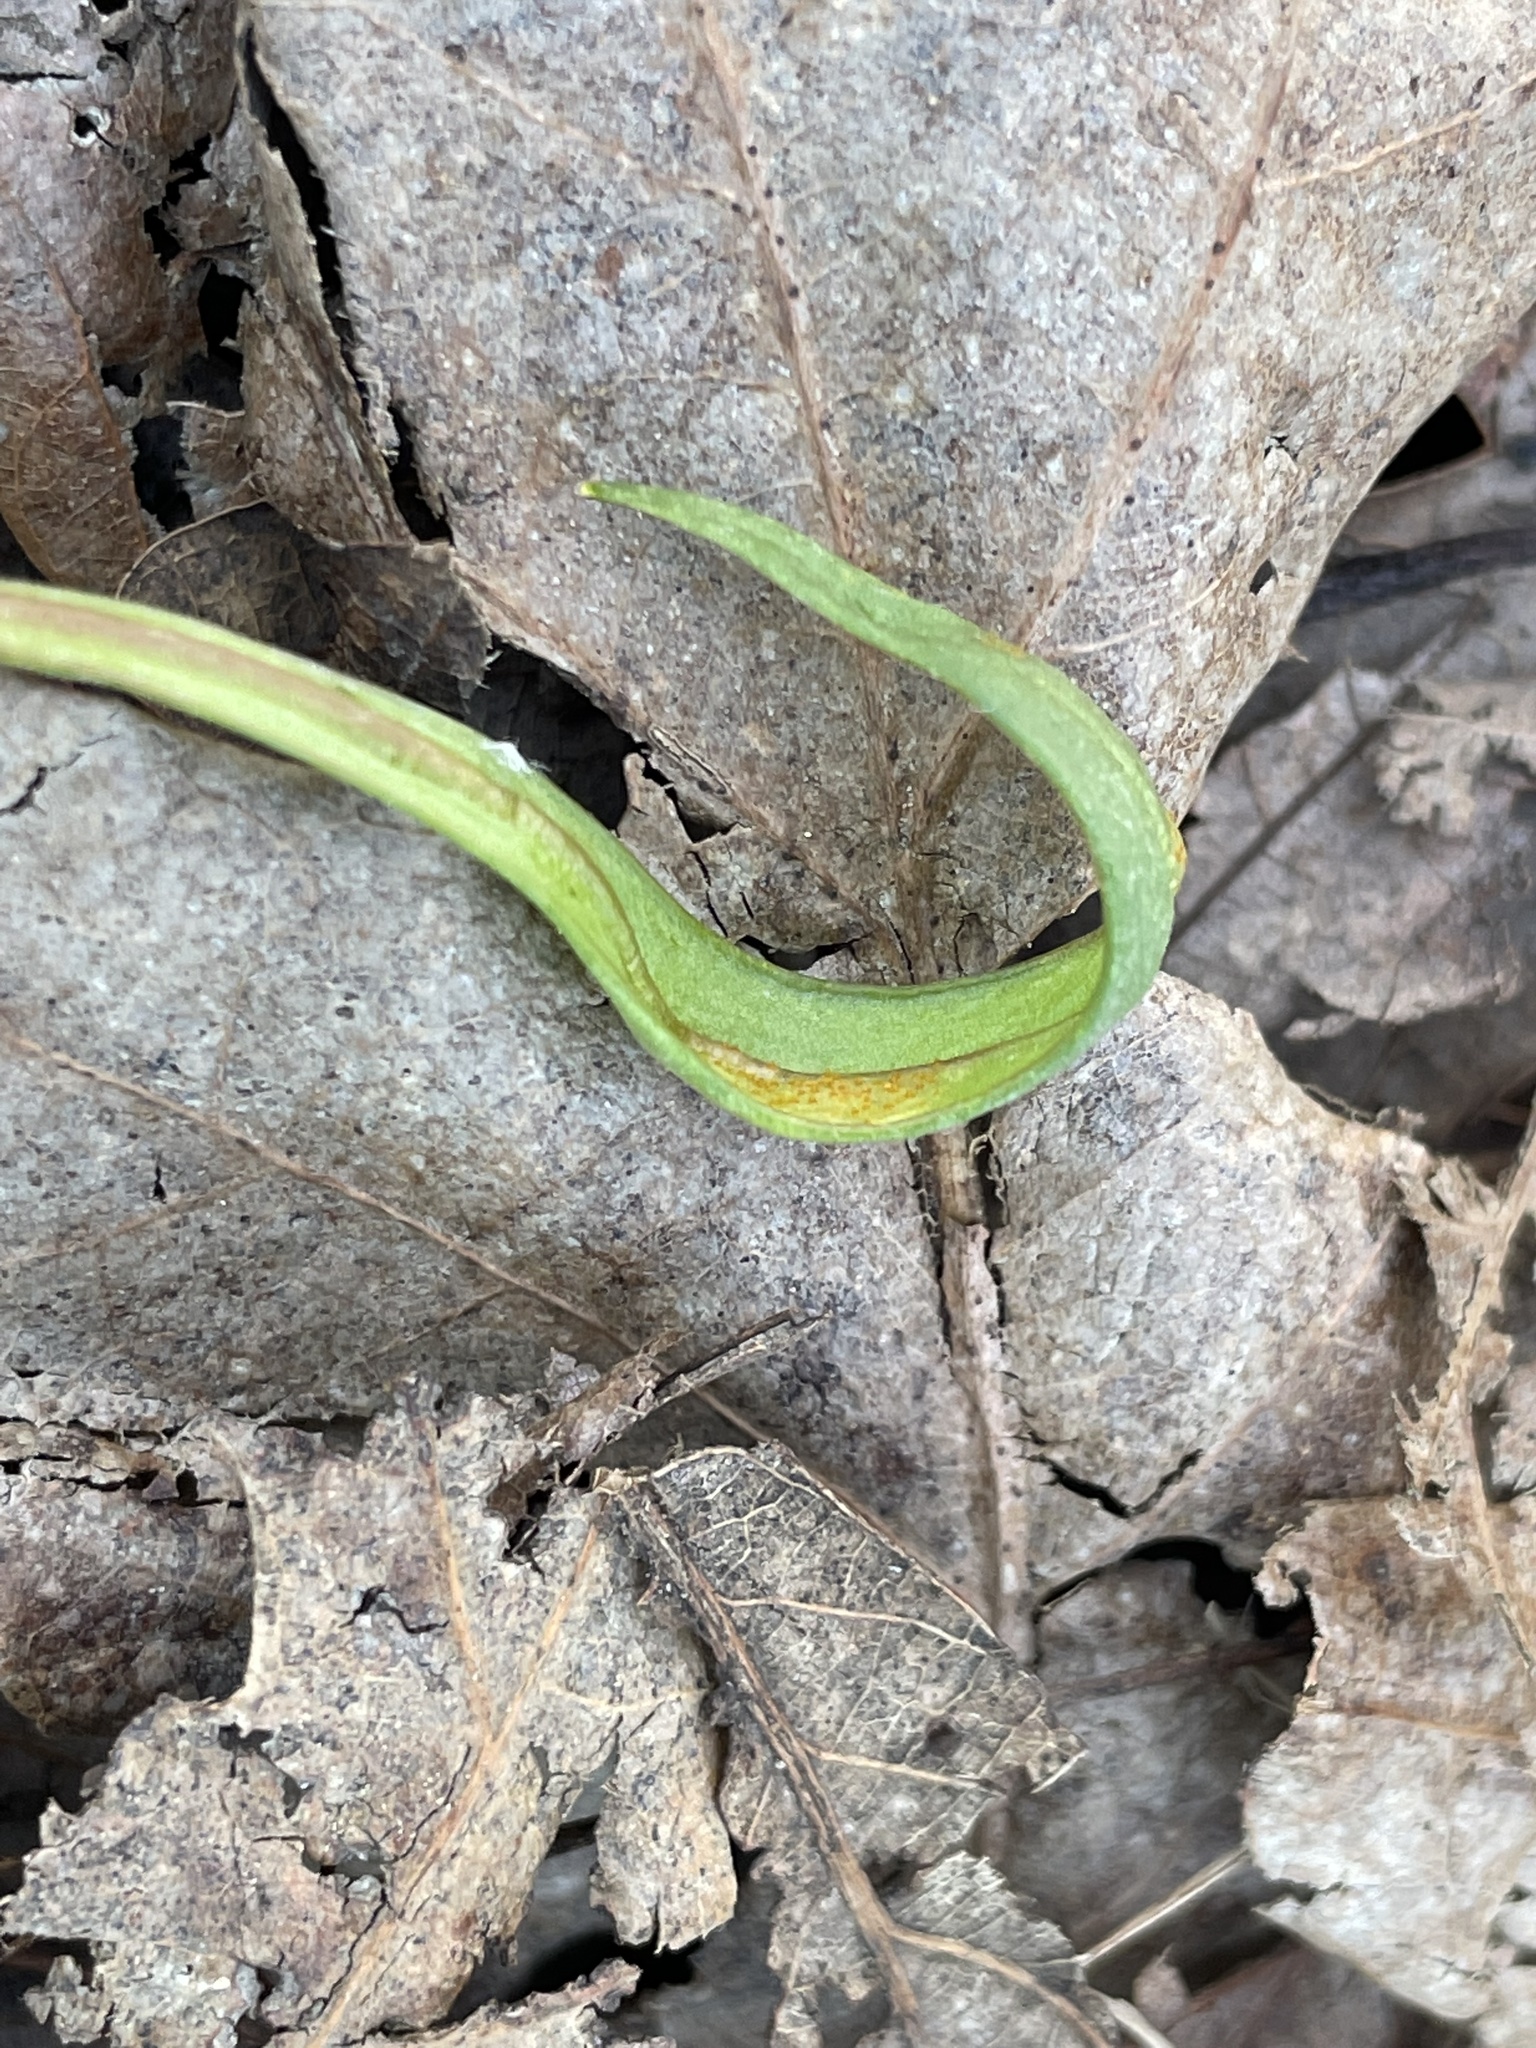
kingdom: Fungi
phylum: Basidiomycota
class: Pucciniomycetes
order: Pucciniales
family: Pucciniaceae
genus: Puccinia
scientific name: Puccinia mariae-wilsoniae
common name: Spring beauty rust
